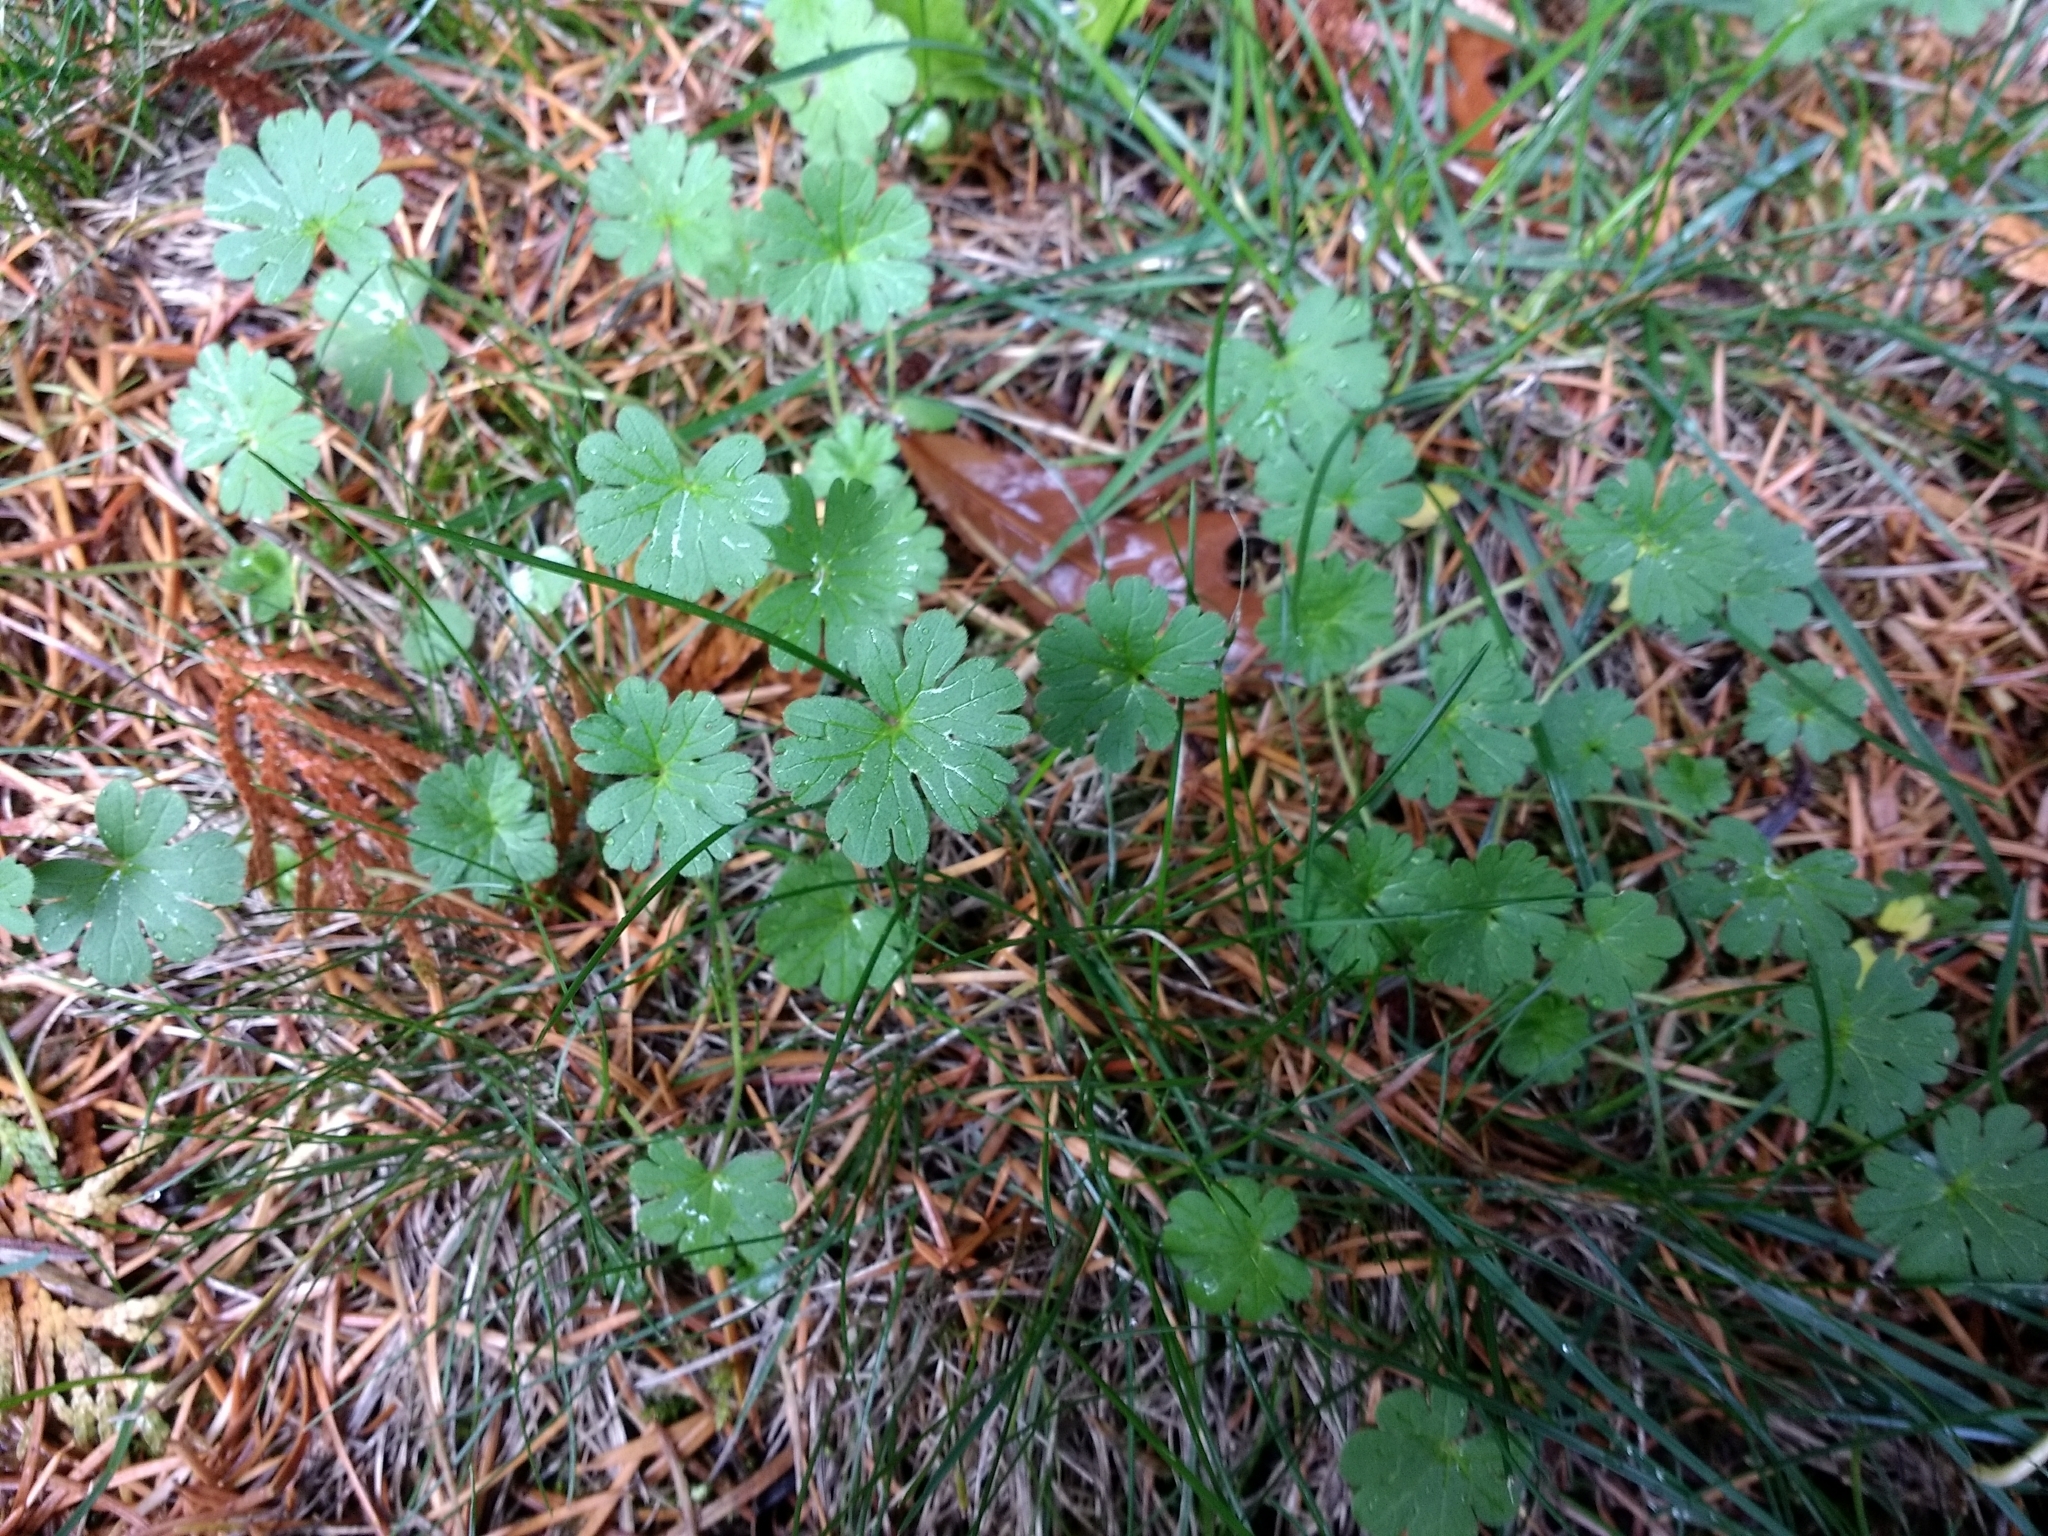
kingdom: Plantae
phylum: Tracheophyta
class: Magnoliopsida
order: Geraniales
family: Geraniaceae
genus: Geranium
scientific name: Geranium molle
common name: Dove's-foot crane's-bill
